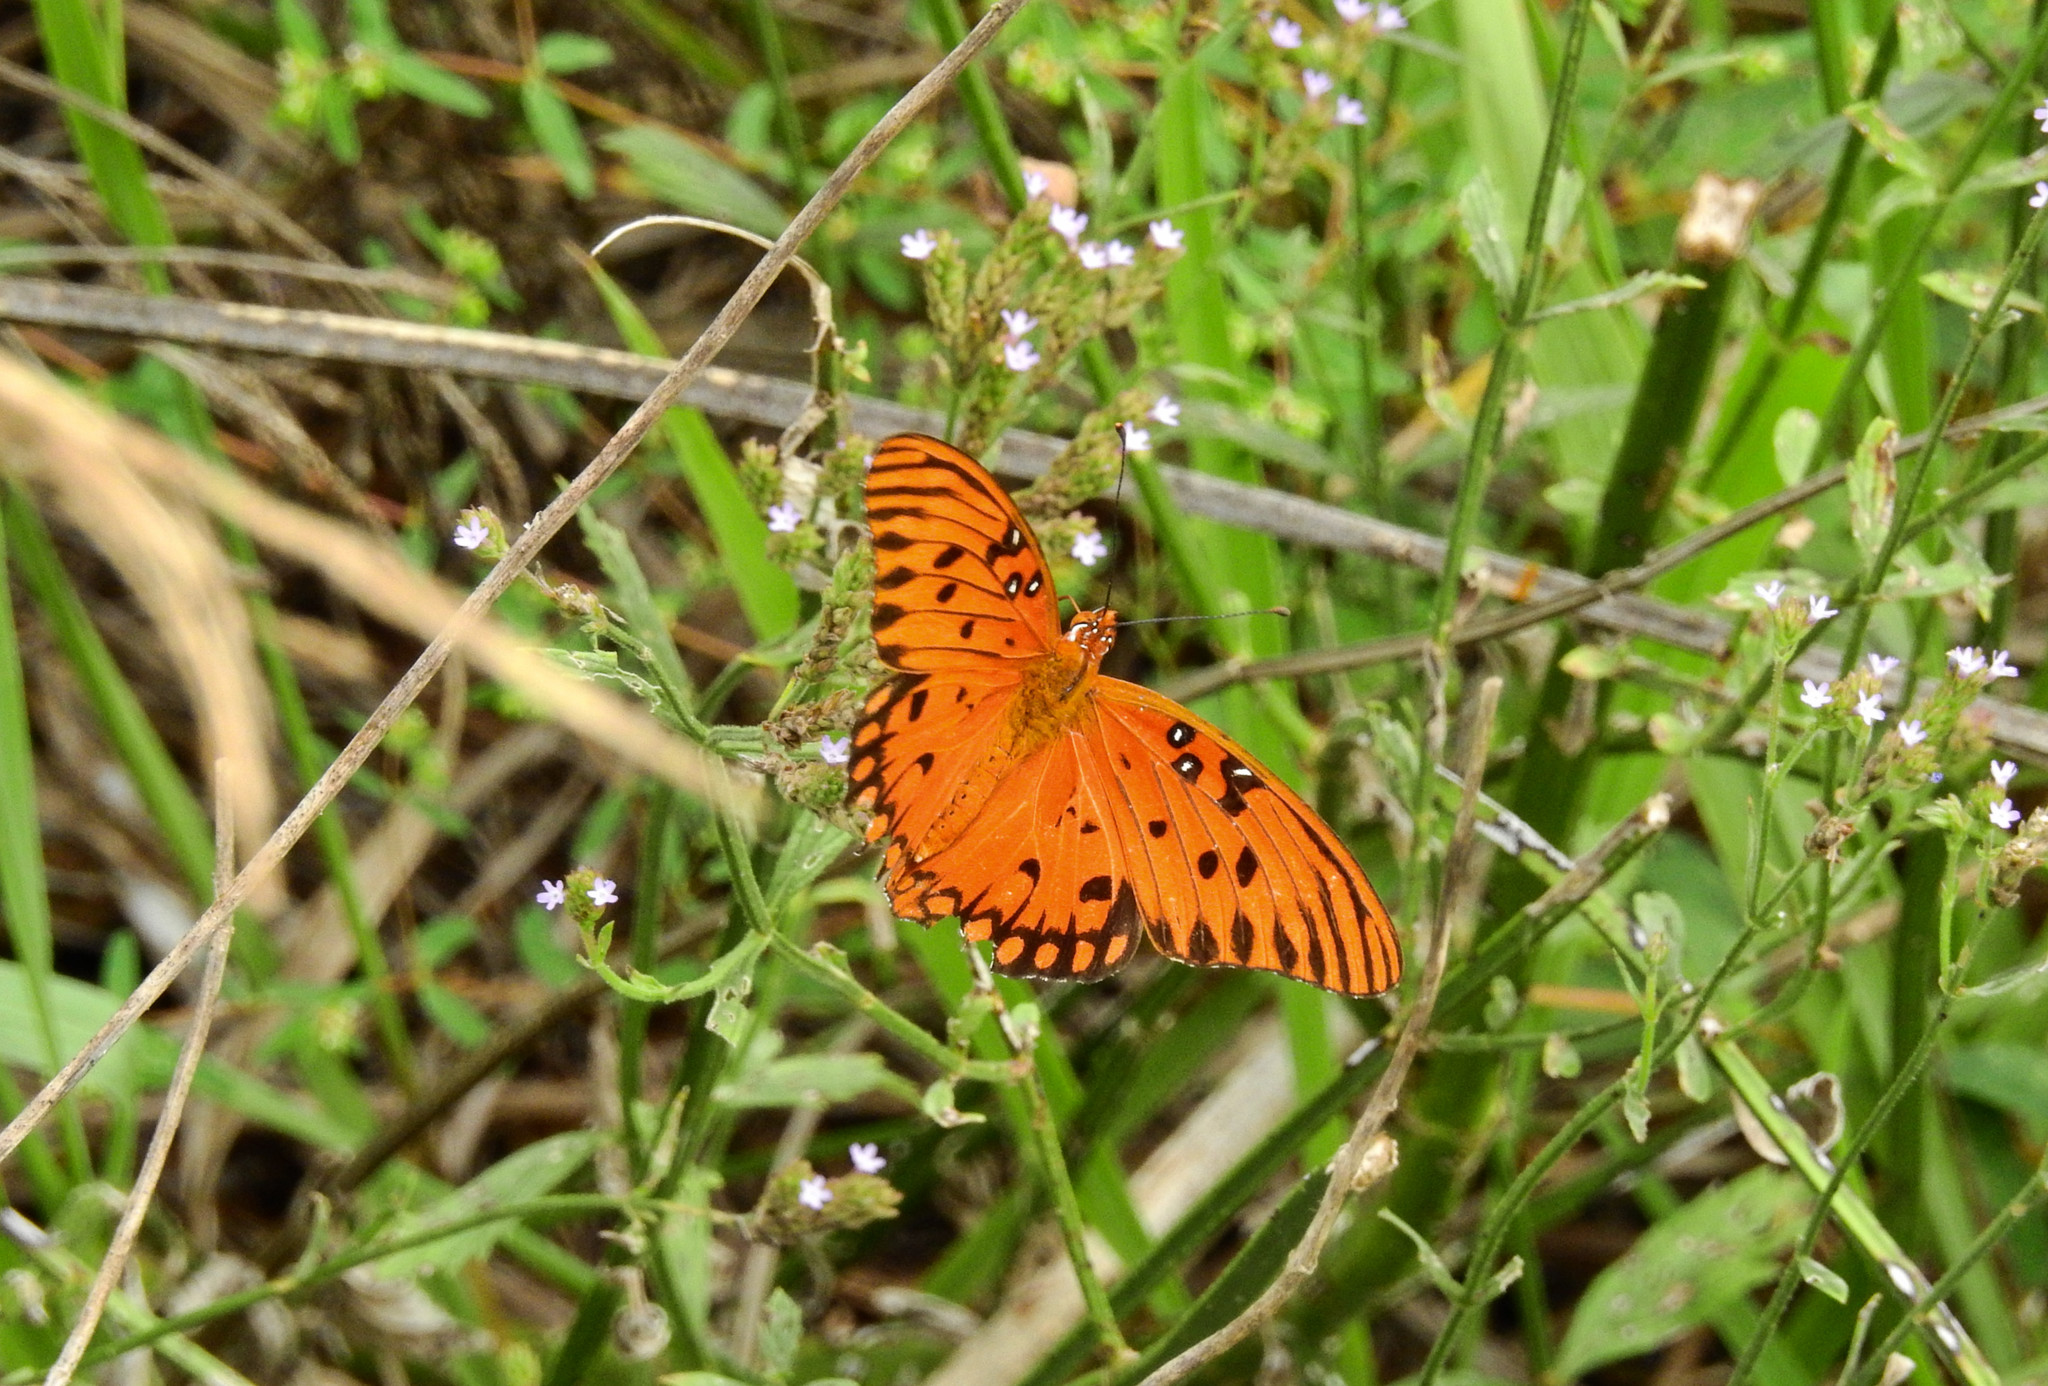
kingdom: Animalia
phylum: Arthropoda
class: Insecta
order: Lepidoptera
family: Nymphalidae
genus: Dione
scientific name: Dione vanillae
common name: Gulf fritillary
